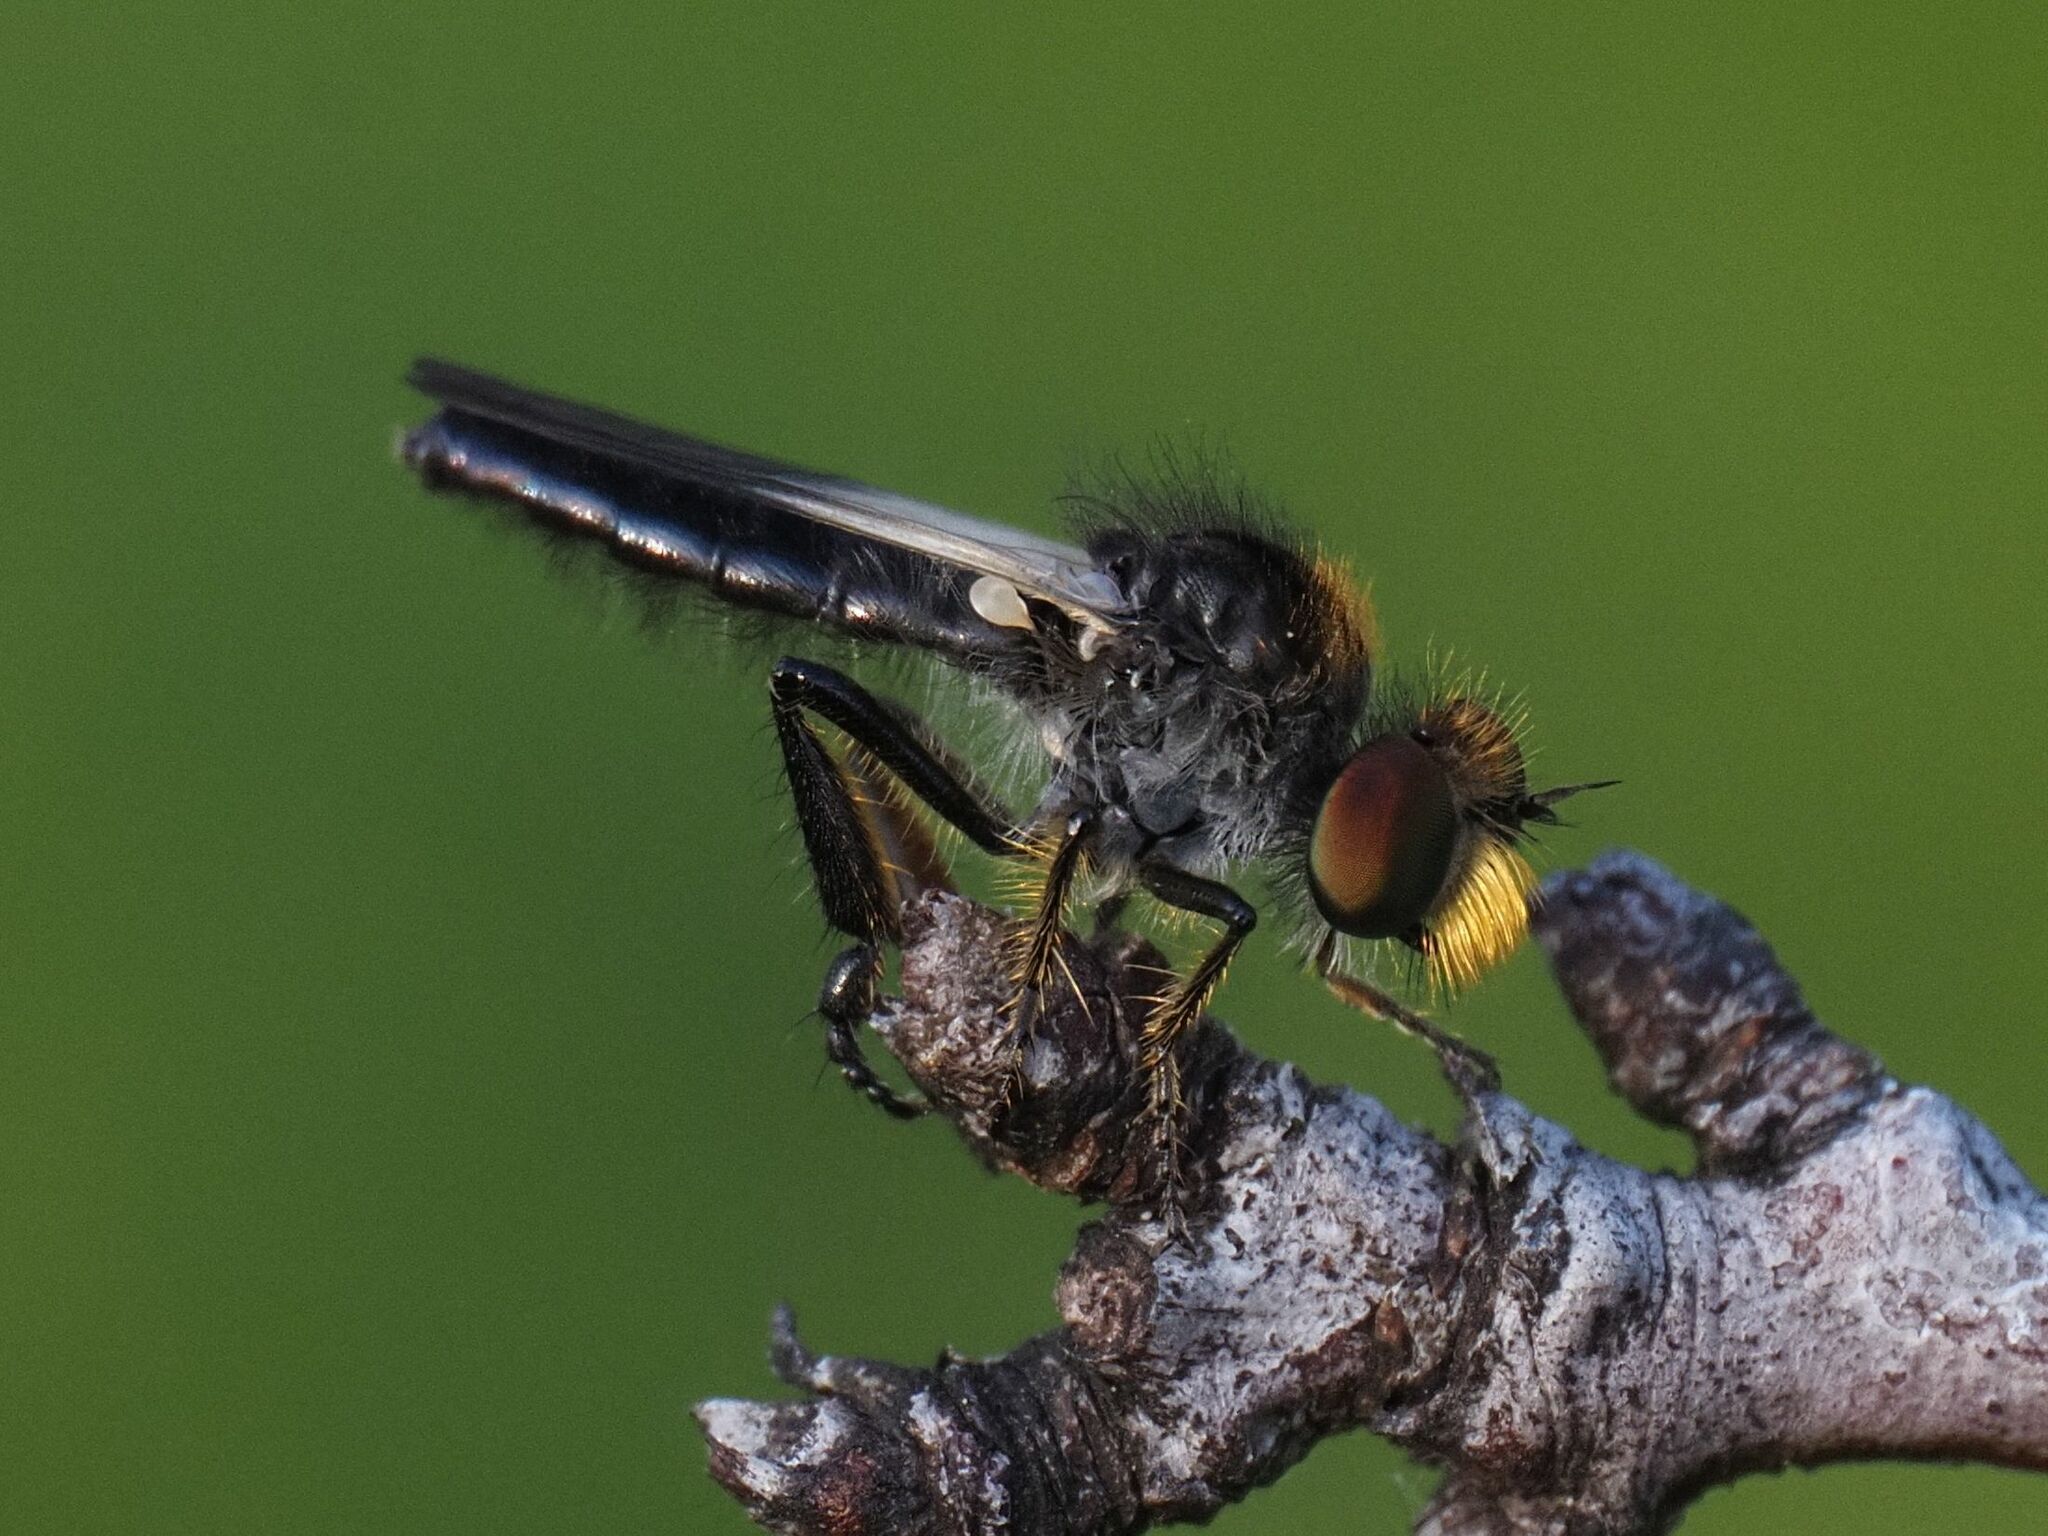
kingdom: Animalia
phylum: Arthropoda
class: Insecta
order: Diptera
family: Asilidae
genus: Podoctria
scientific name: Podoctria nigripennis
